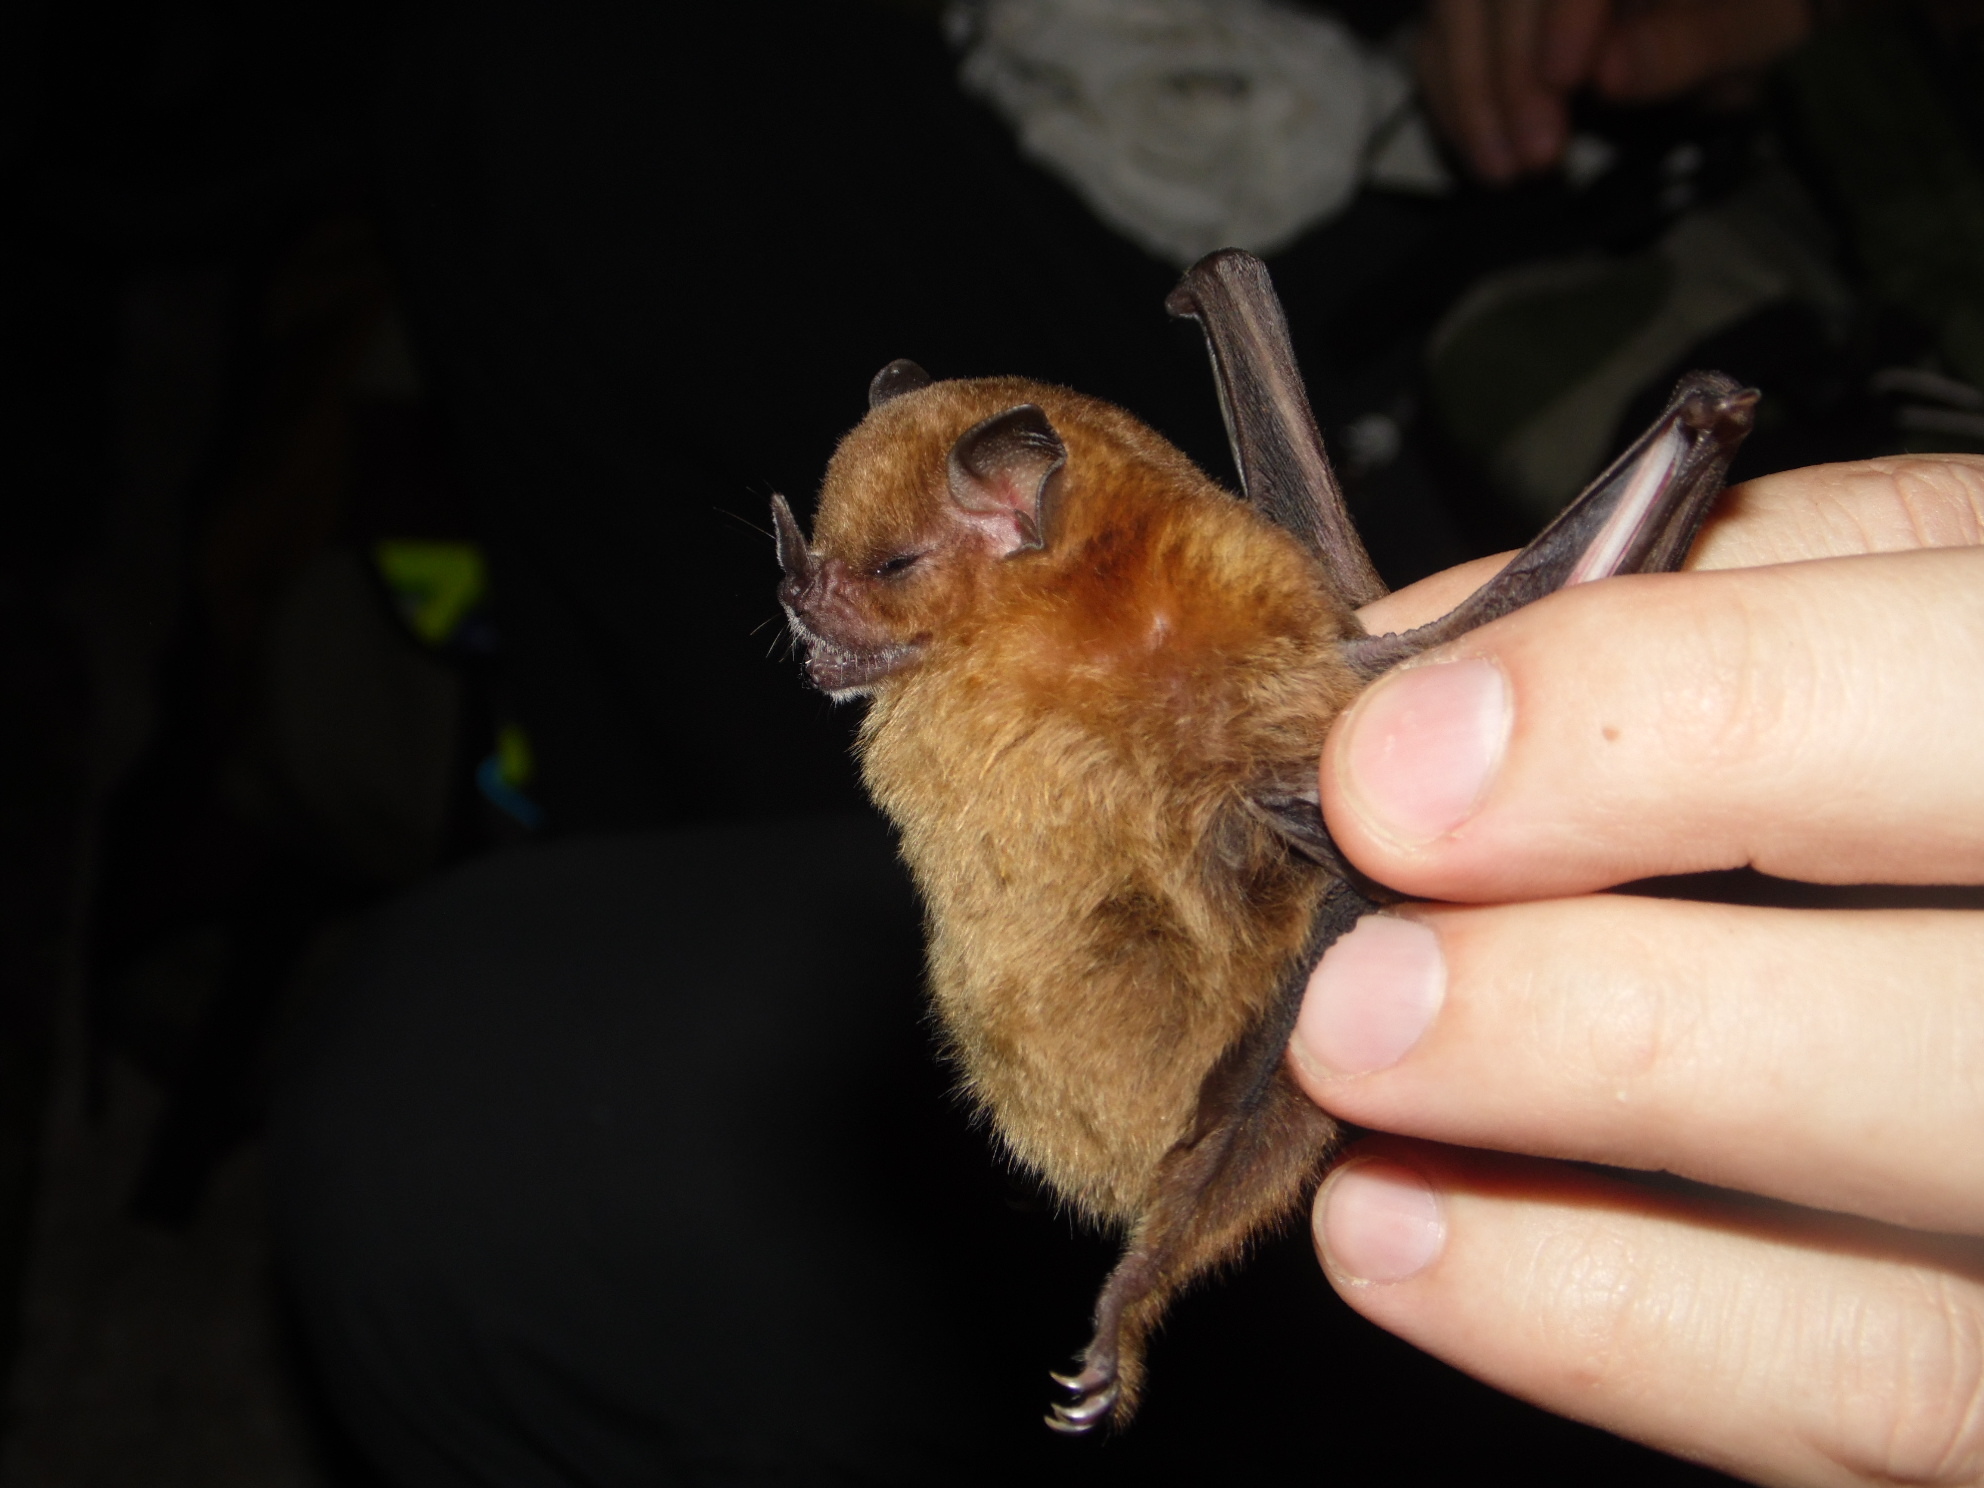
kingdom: Animalia
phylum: Chordata
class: Mammalia
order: Chiroptera
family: Phyllostomidae
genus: Sturnira
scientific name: Sturnira lilium
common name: Little yellow-shouldered bat
